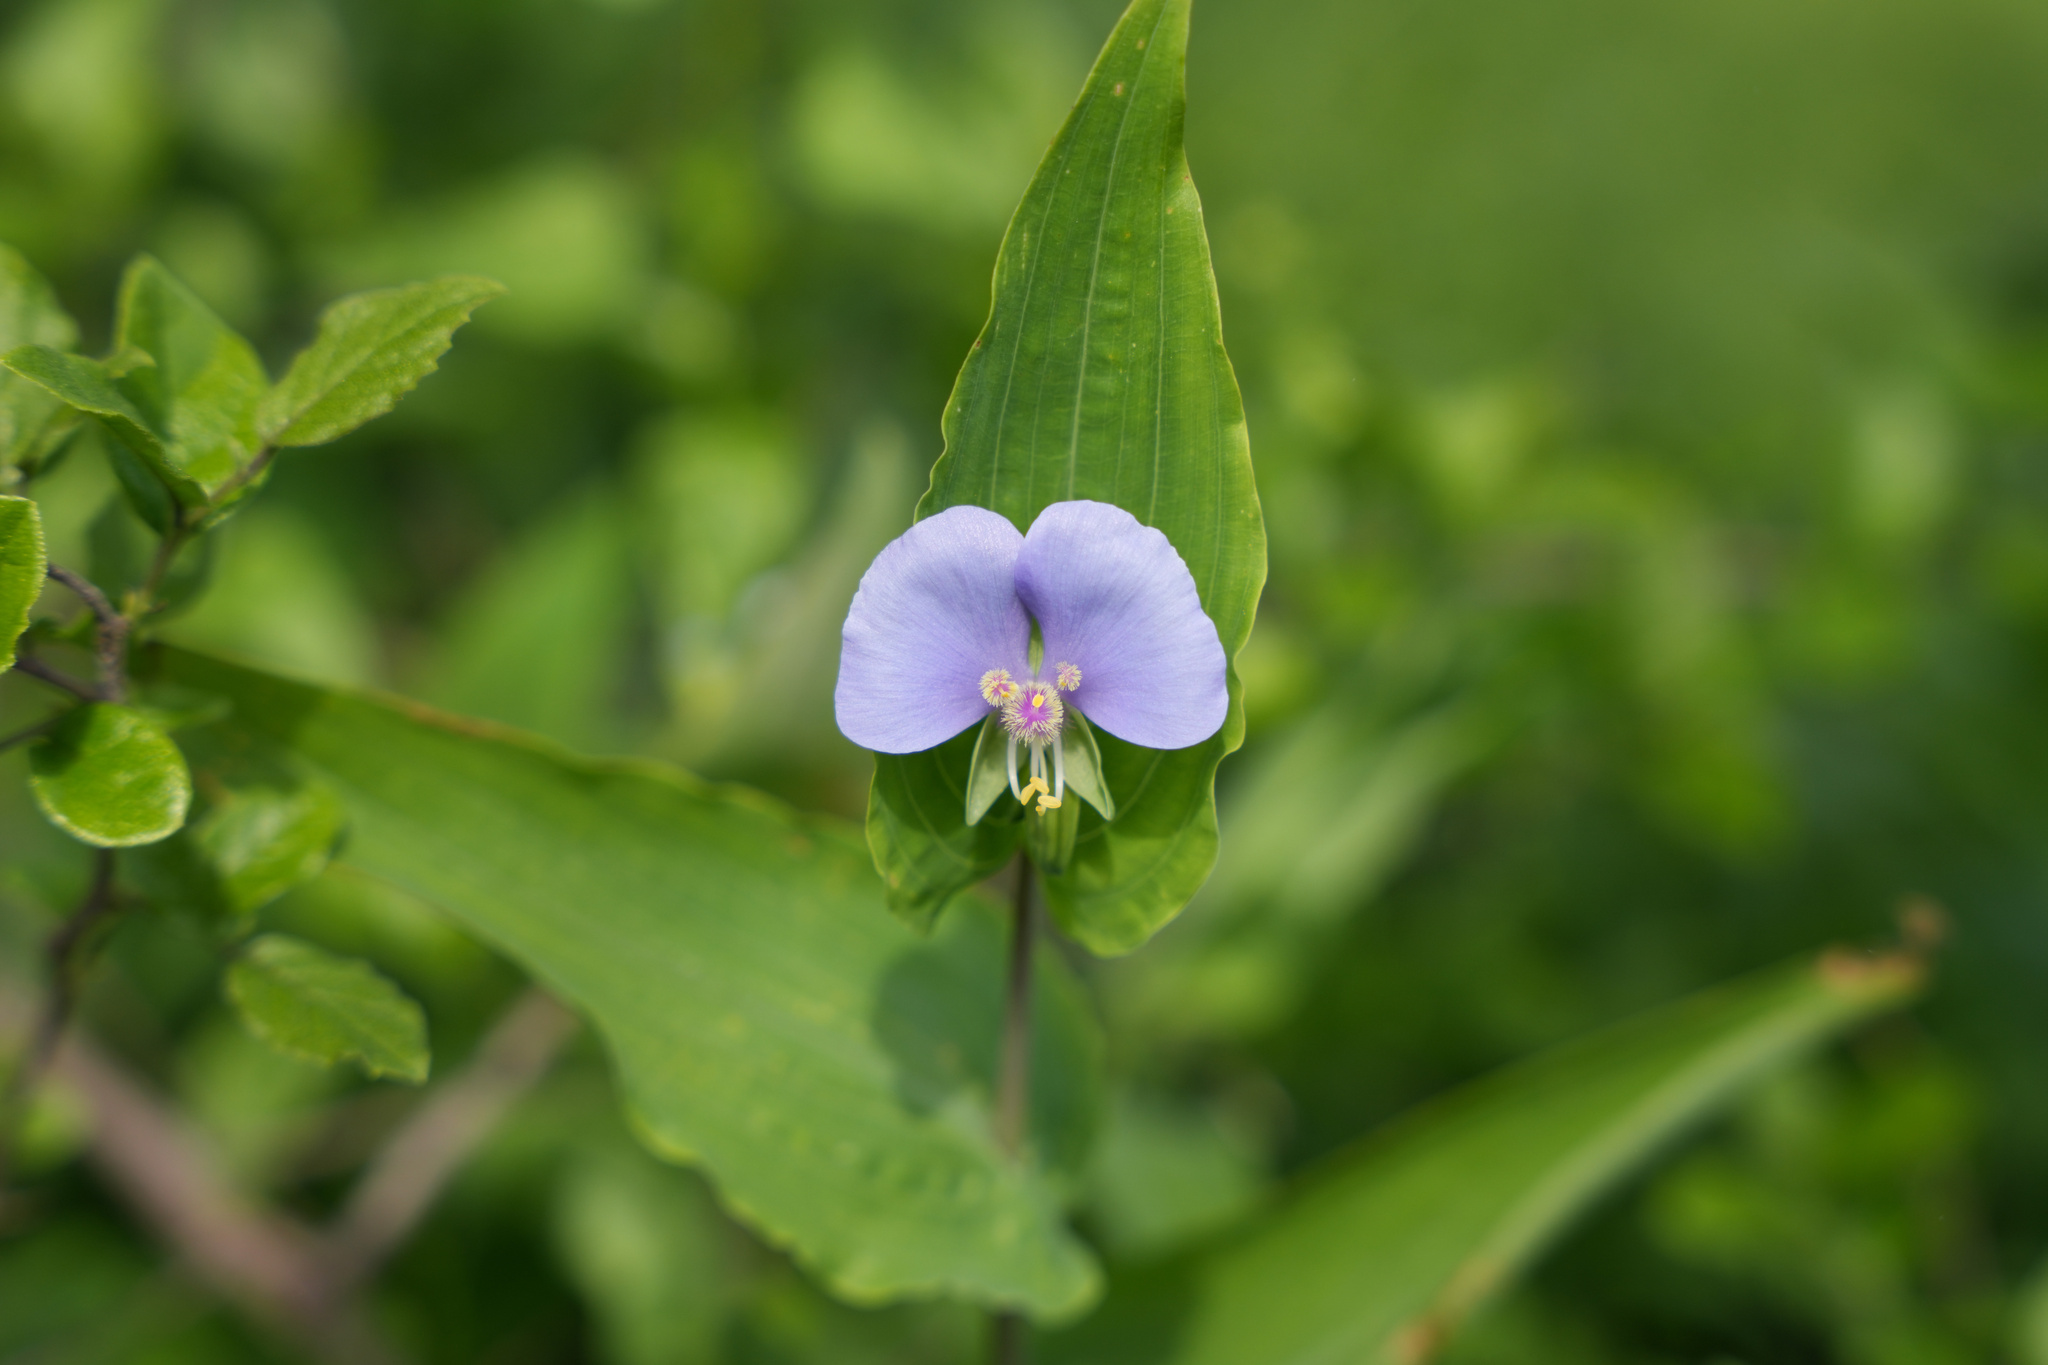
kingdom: Plantae
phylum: Tracheophyta
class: Liliopsida
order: Commelinales
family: Commelinaceae
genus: Tinantia
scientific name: Tinantia anomala
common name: False dayflower
